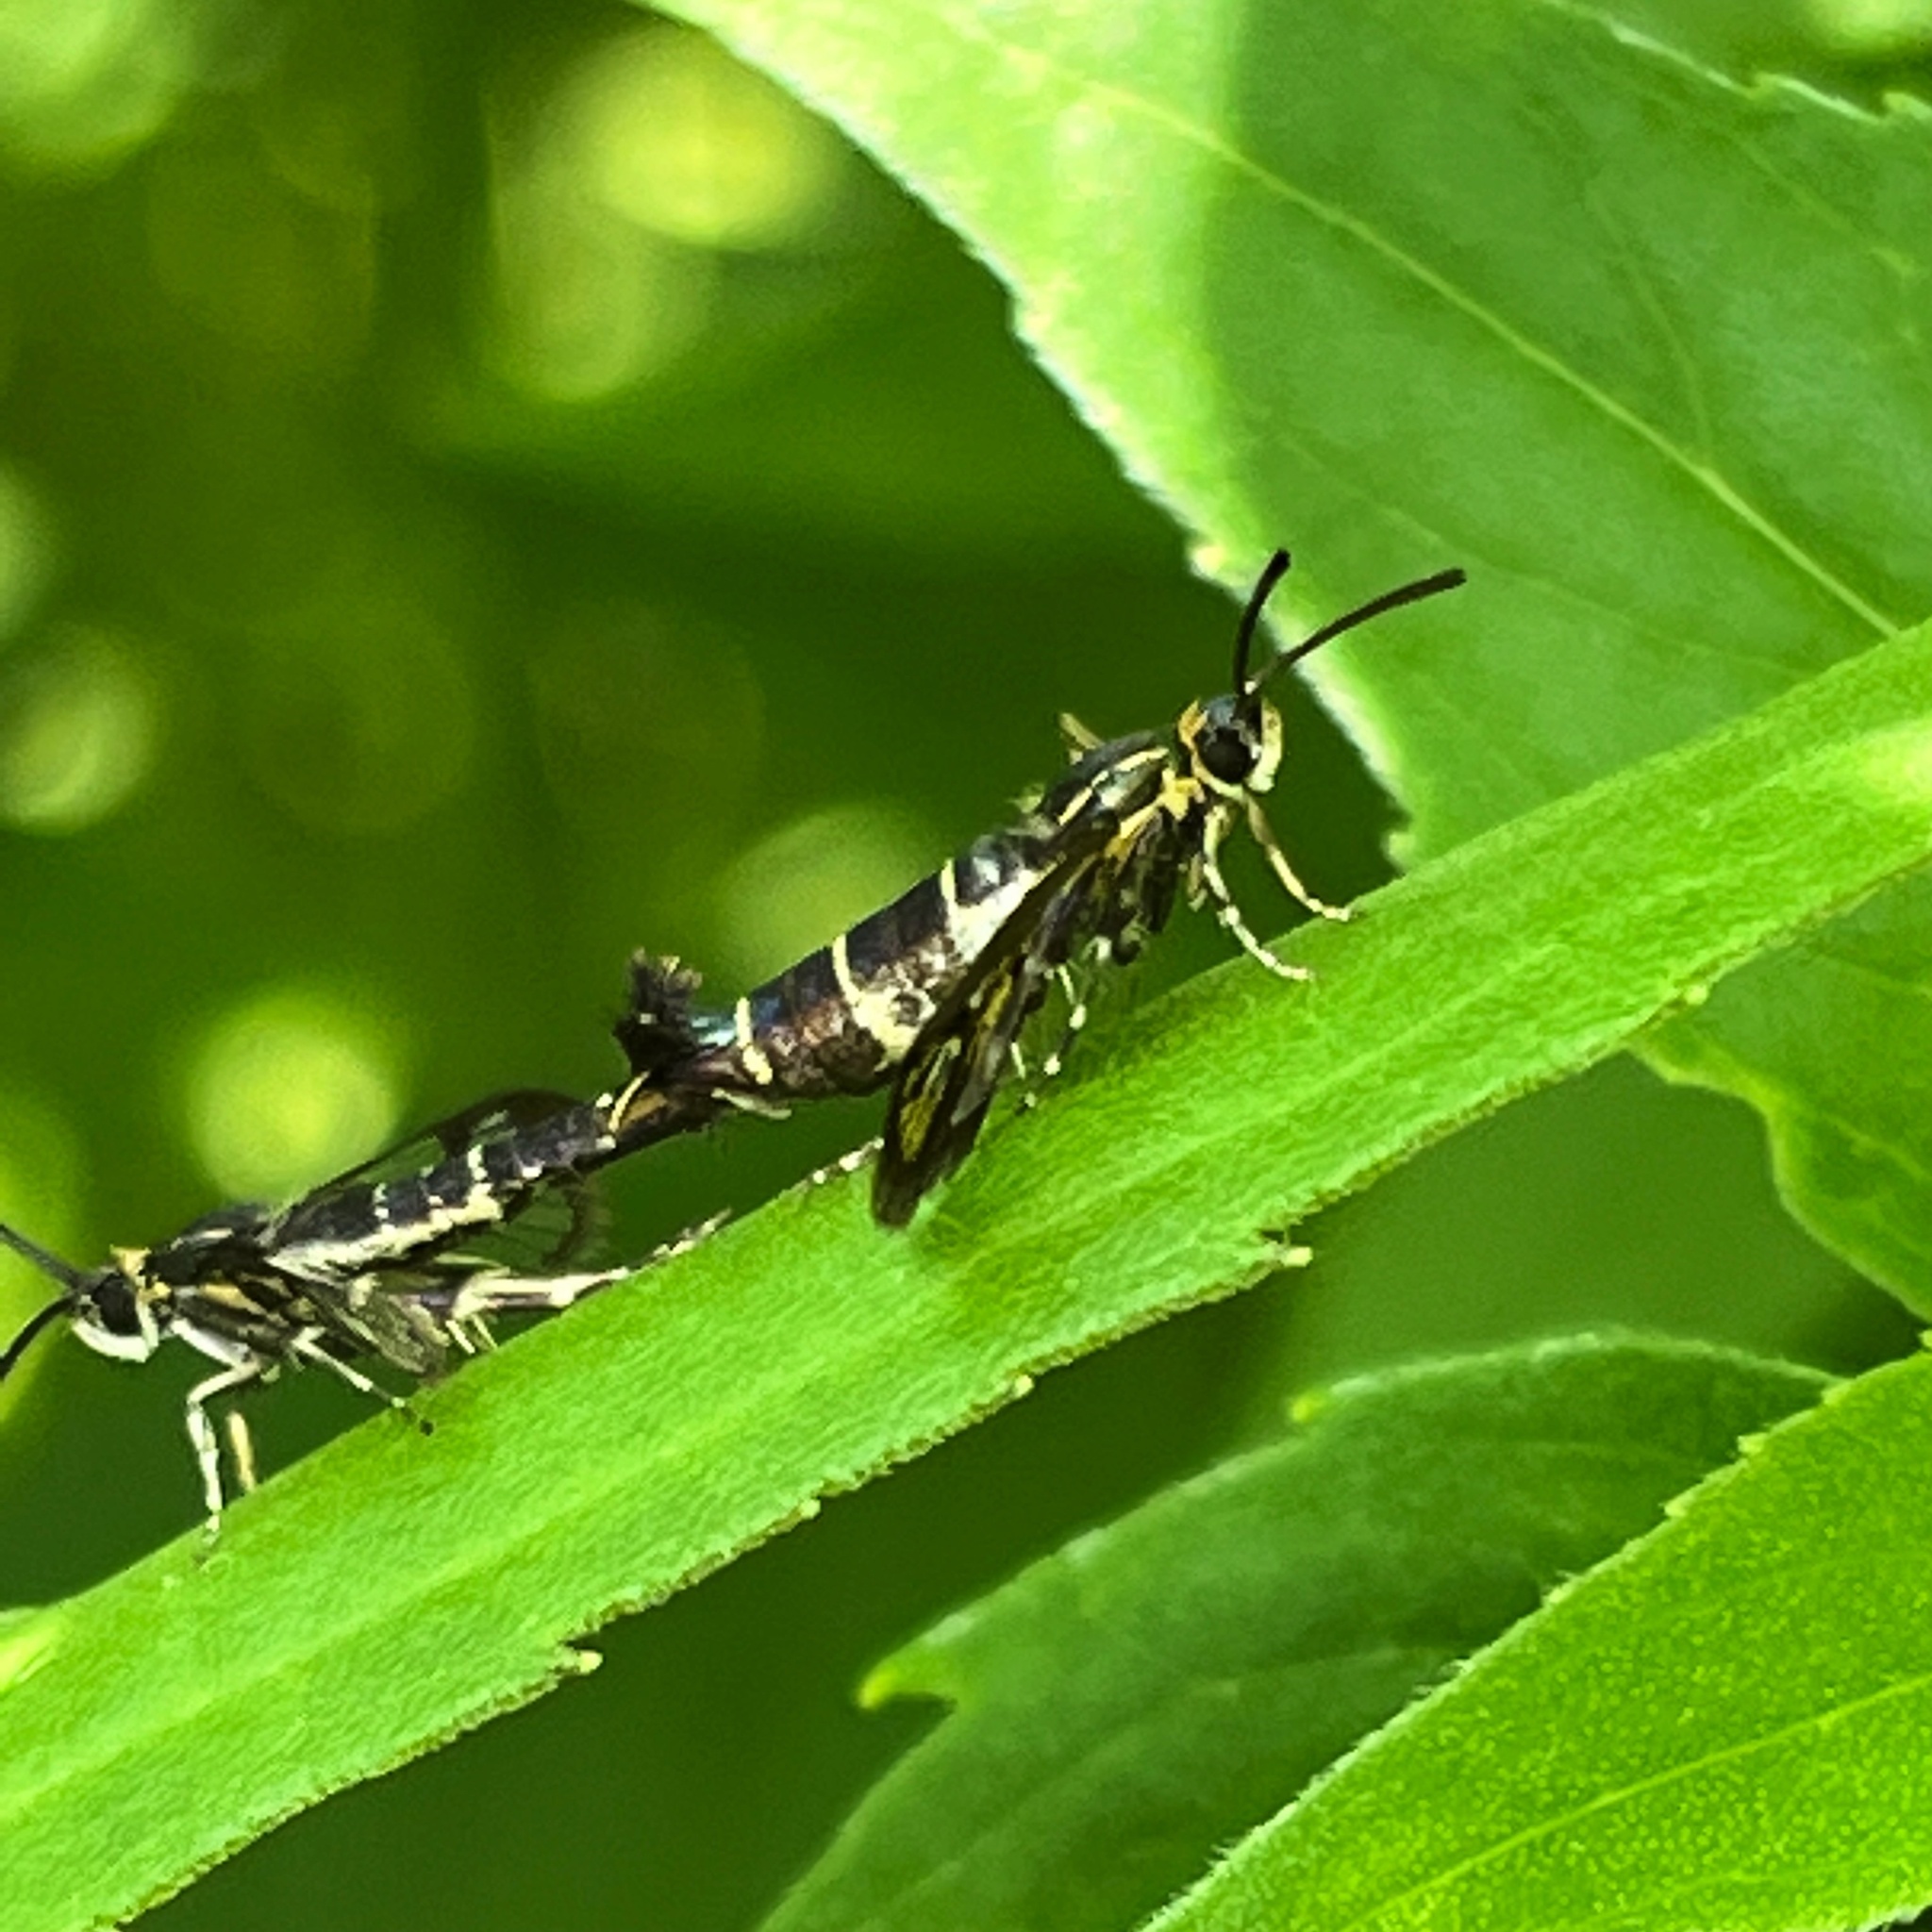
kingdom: Animalia
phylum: Arthropoda
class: Insecta
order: Lepidoptera
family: Sesiidae
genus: Carmenta
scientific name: Carmenta ithacae
